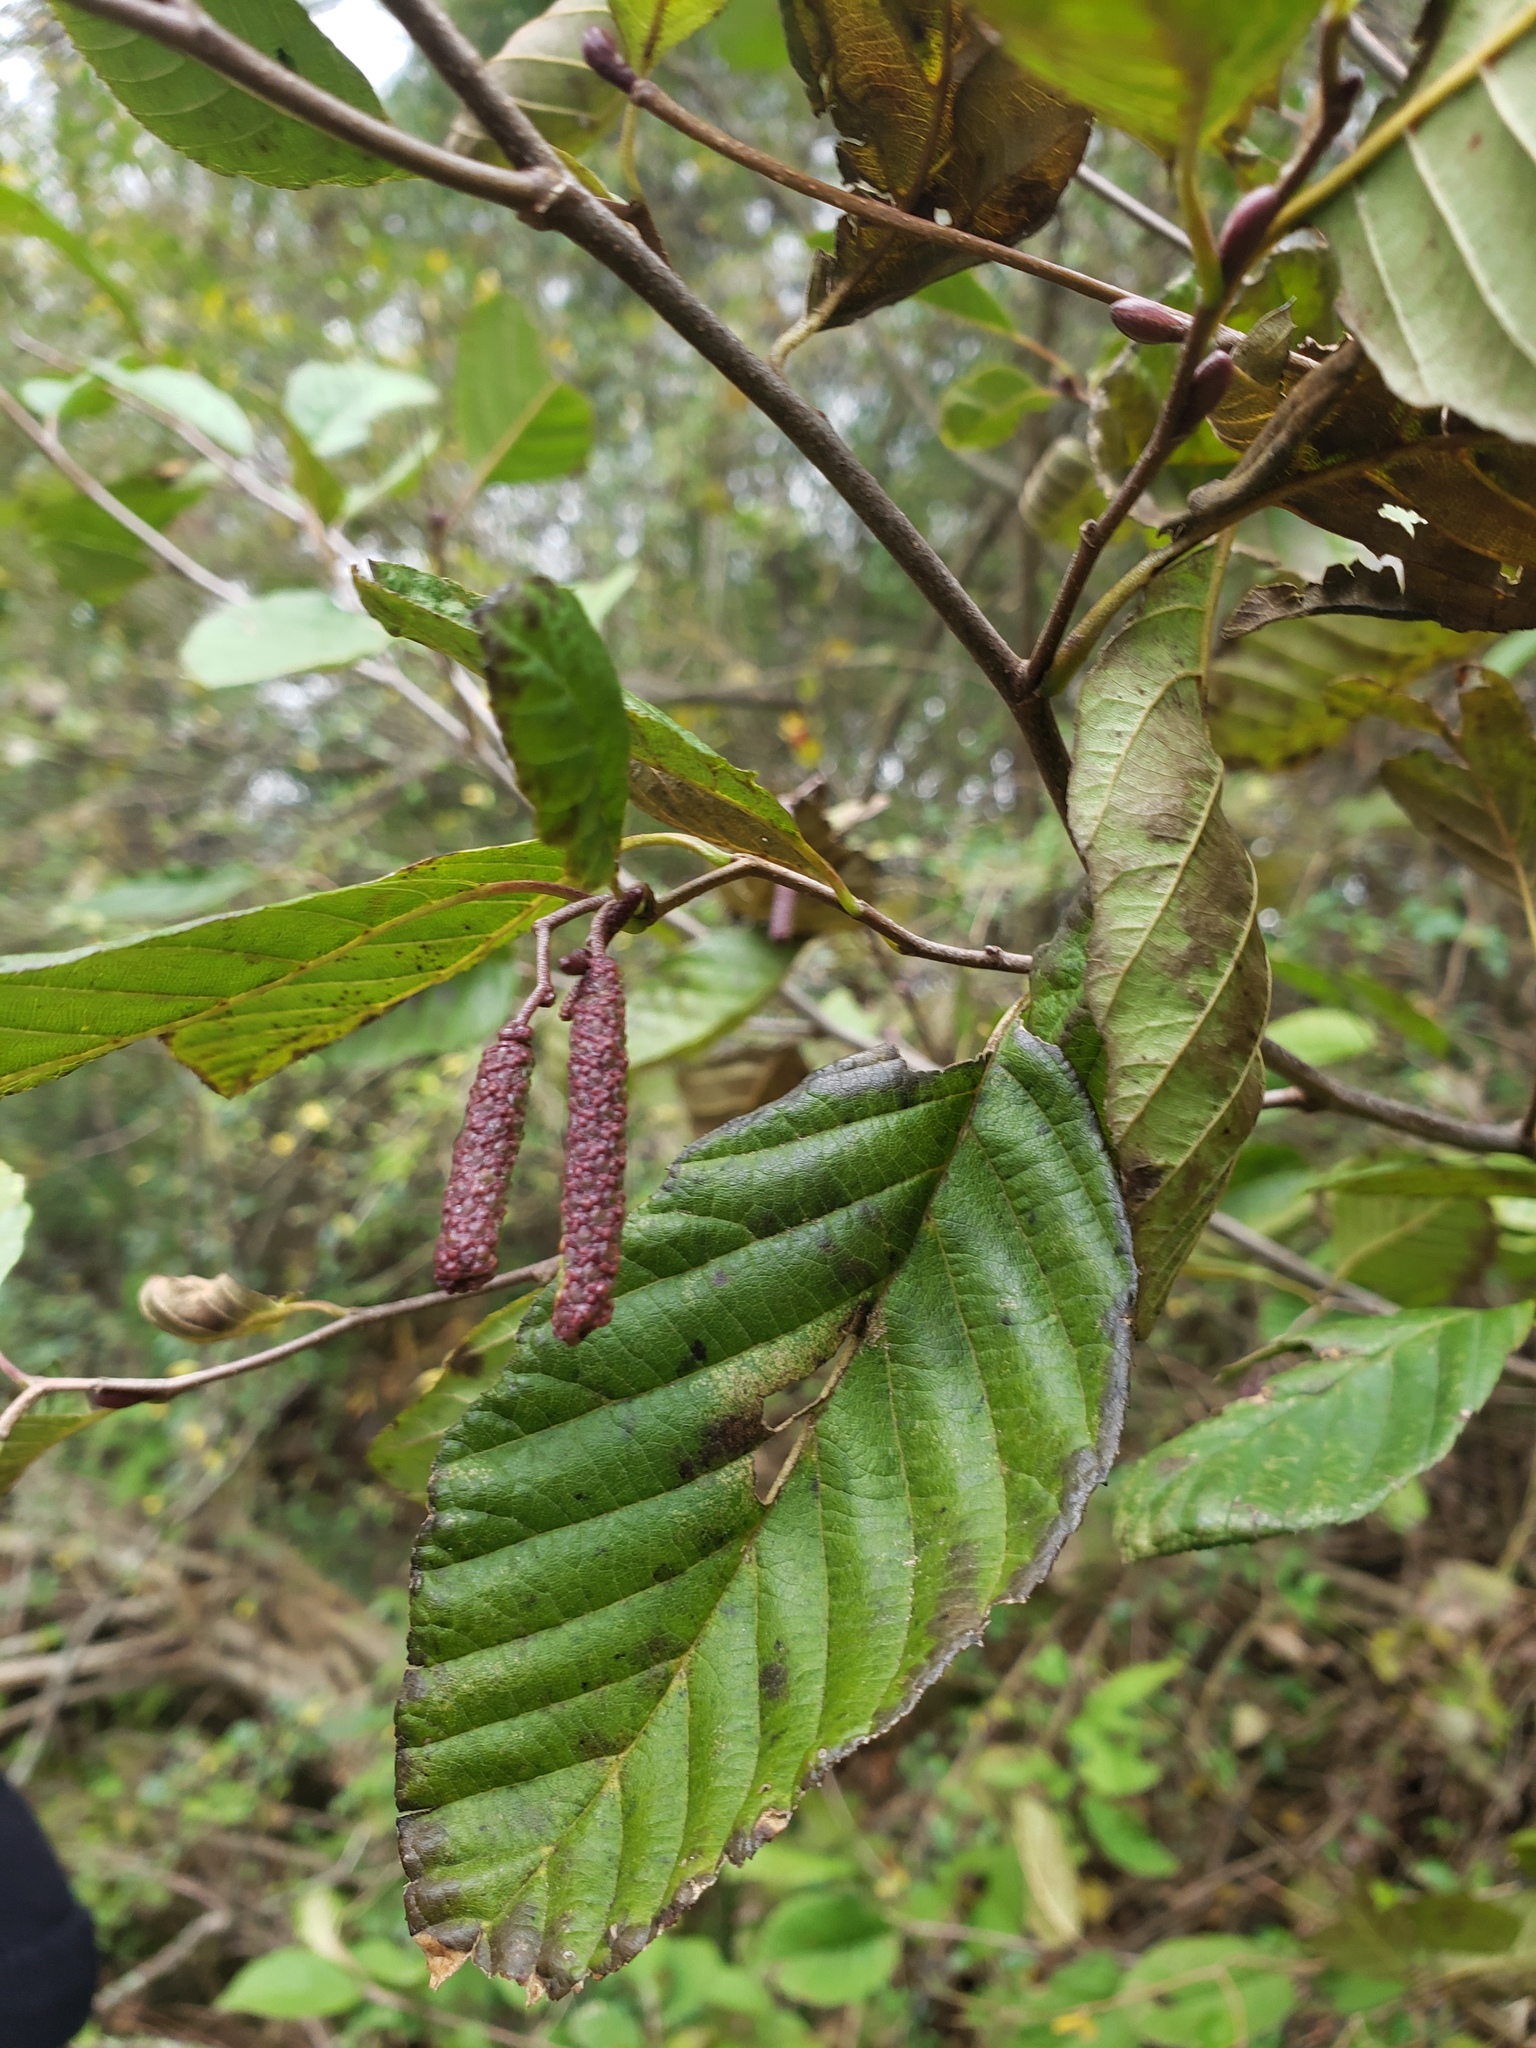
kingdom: Plantae
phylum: Tracheophyta
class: Magnoliopsida
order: Fagales
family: Betulaceae
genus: Alnus
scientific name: Alnus serrulata
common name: Hazel alder
